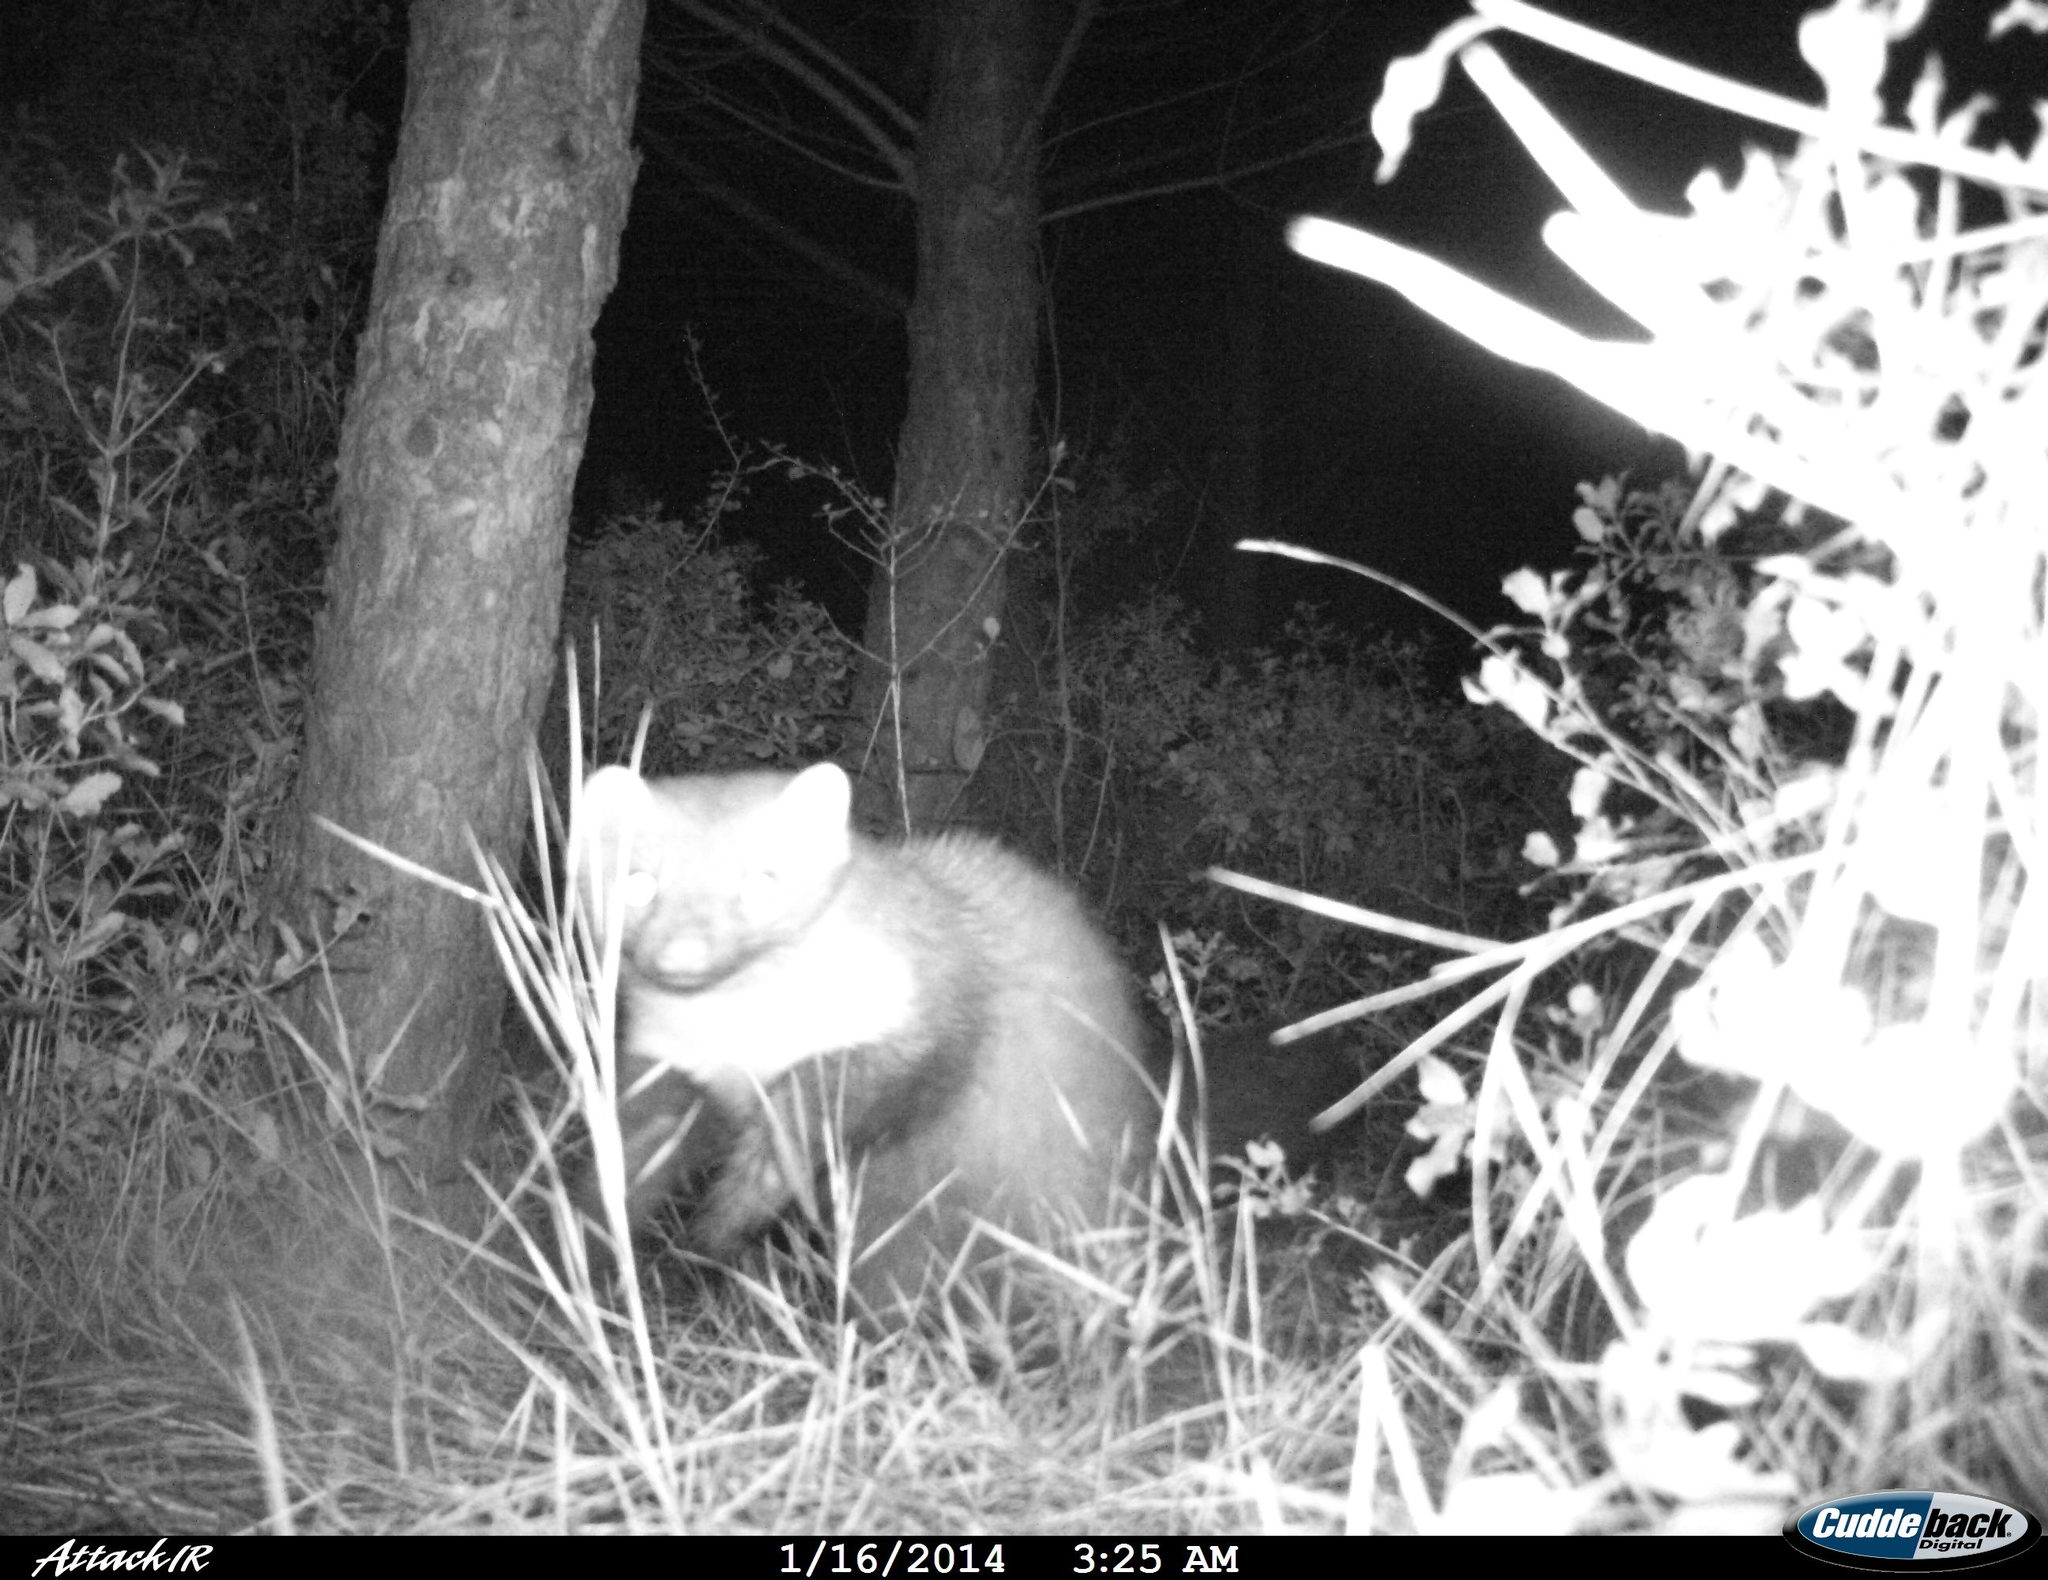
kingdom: Animalia
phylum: Chordata
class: Mammalia
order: Carnivora
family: Mustelidae
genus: Martes
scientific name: Martes foina
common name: Beech marten
